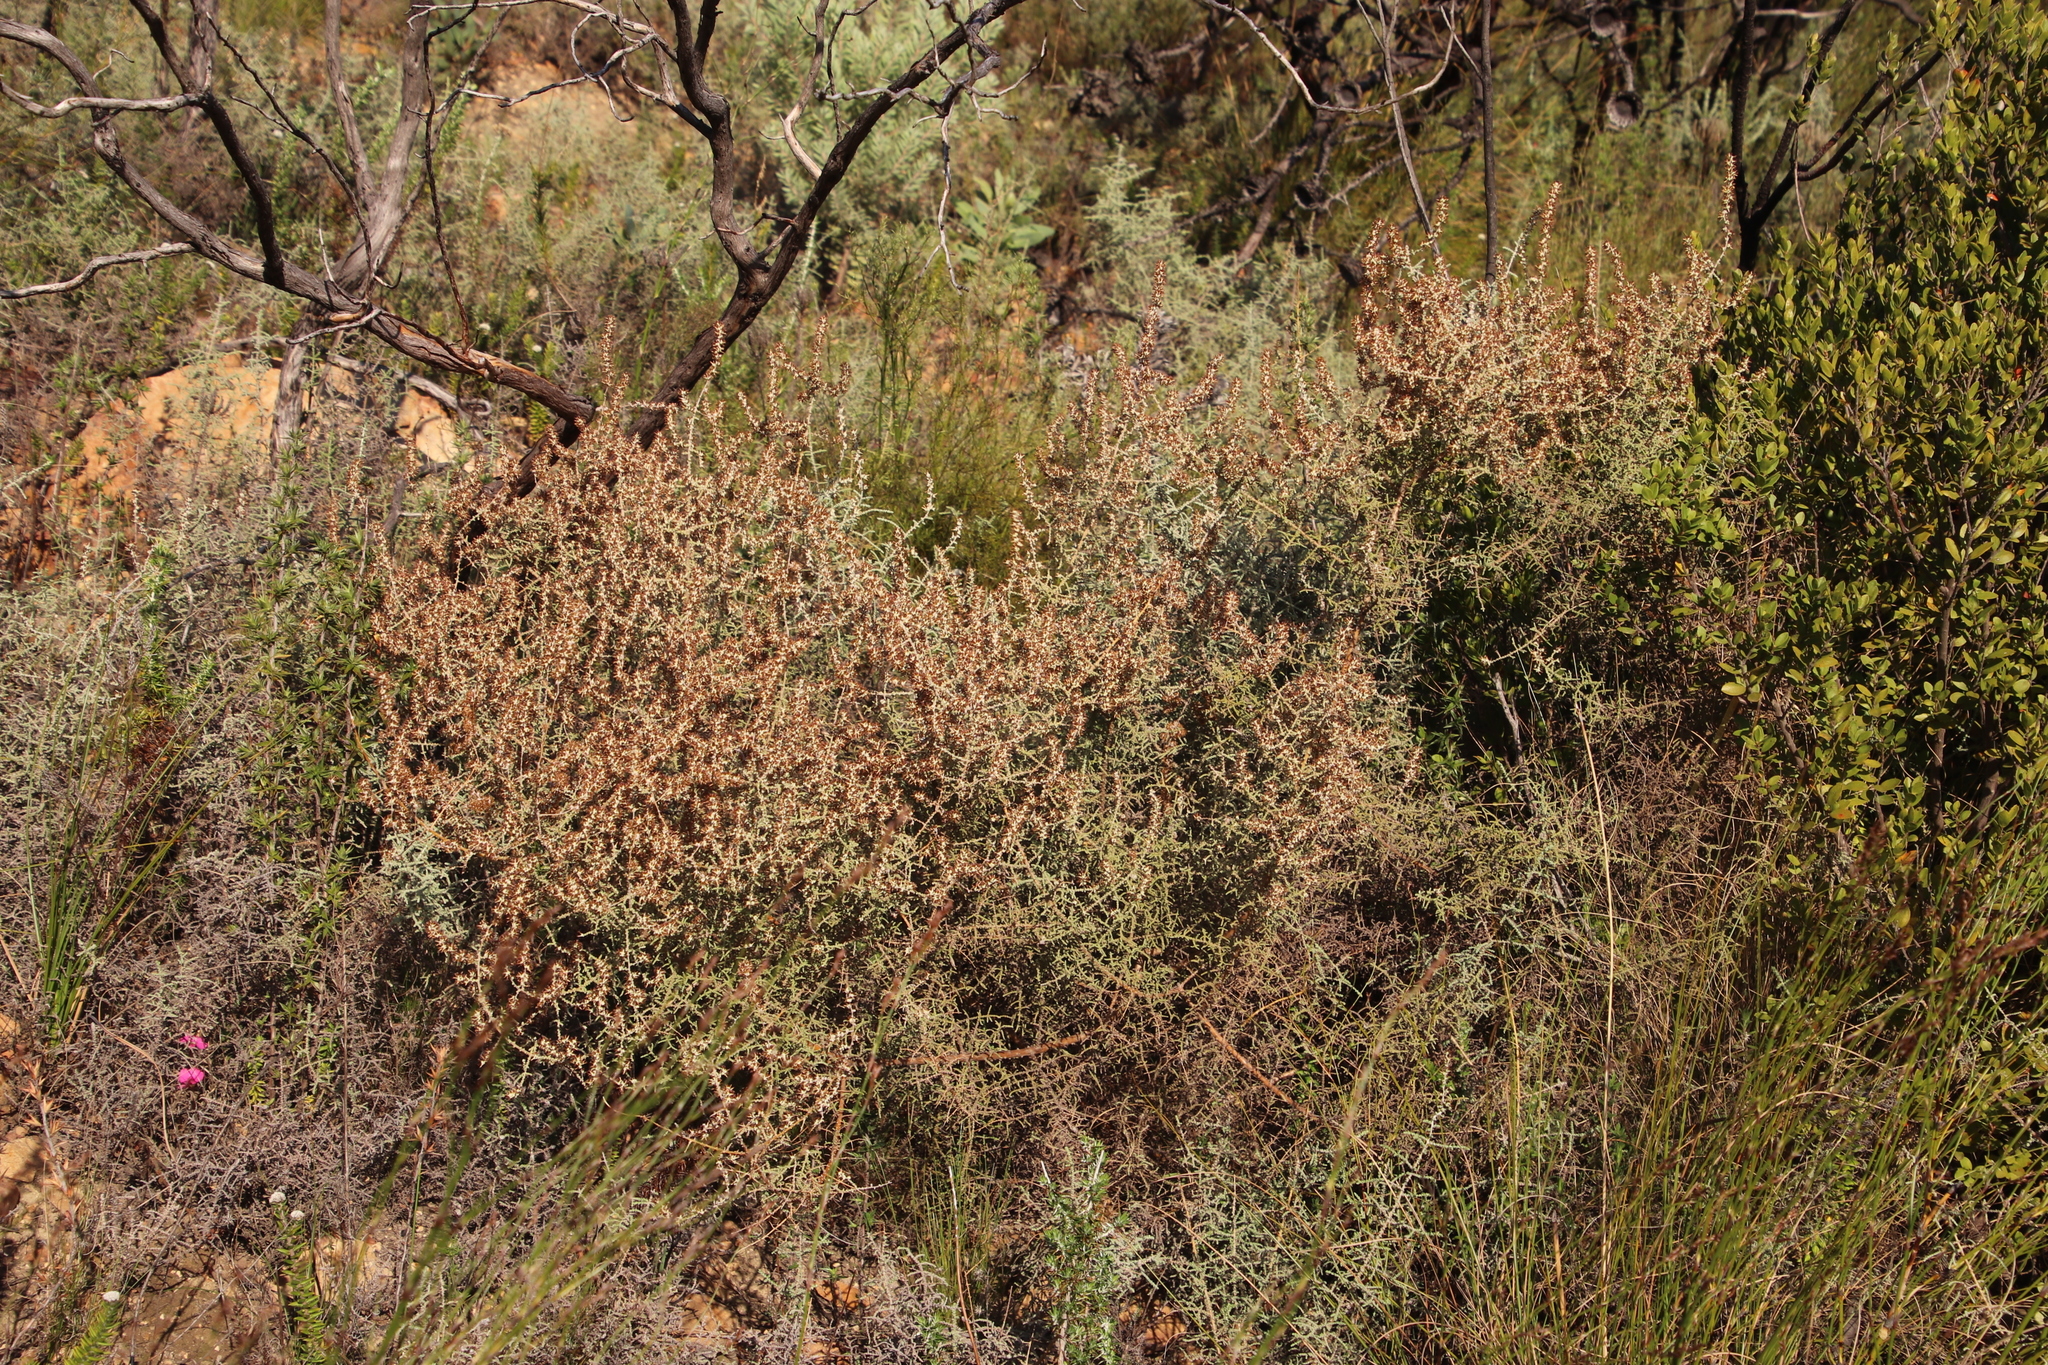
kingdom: Plantae
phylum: Tracheophyta
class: Magnoliopsida
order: Asterales
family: Asteraceae
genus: Seriphium
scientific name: Seriphium plumosum
